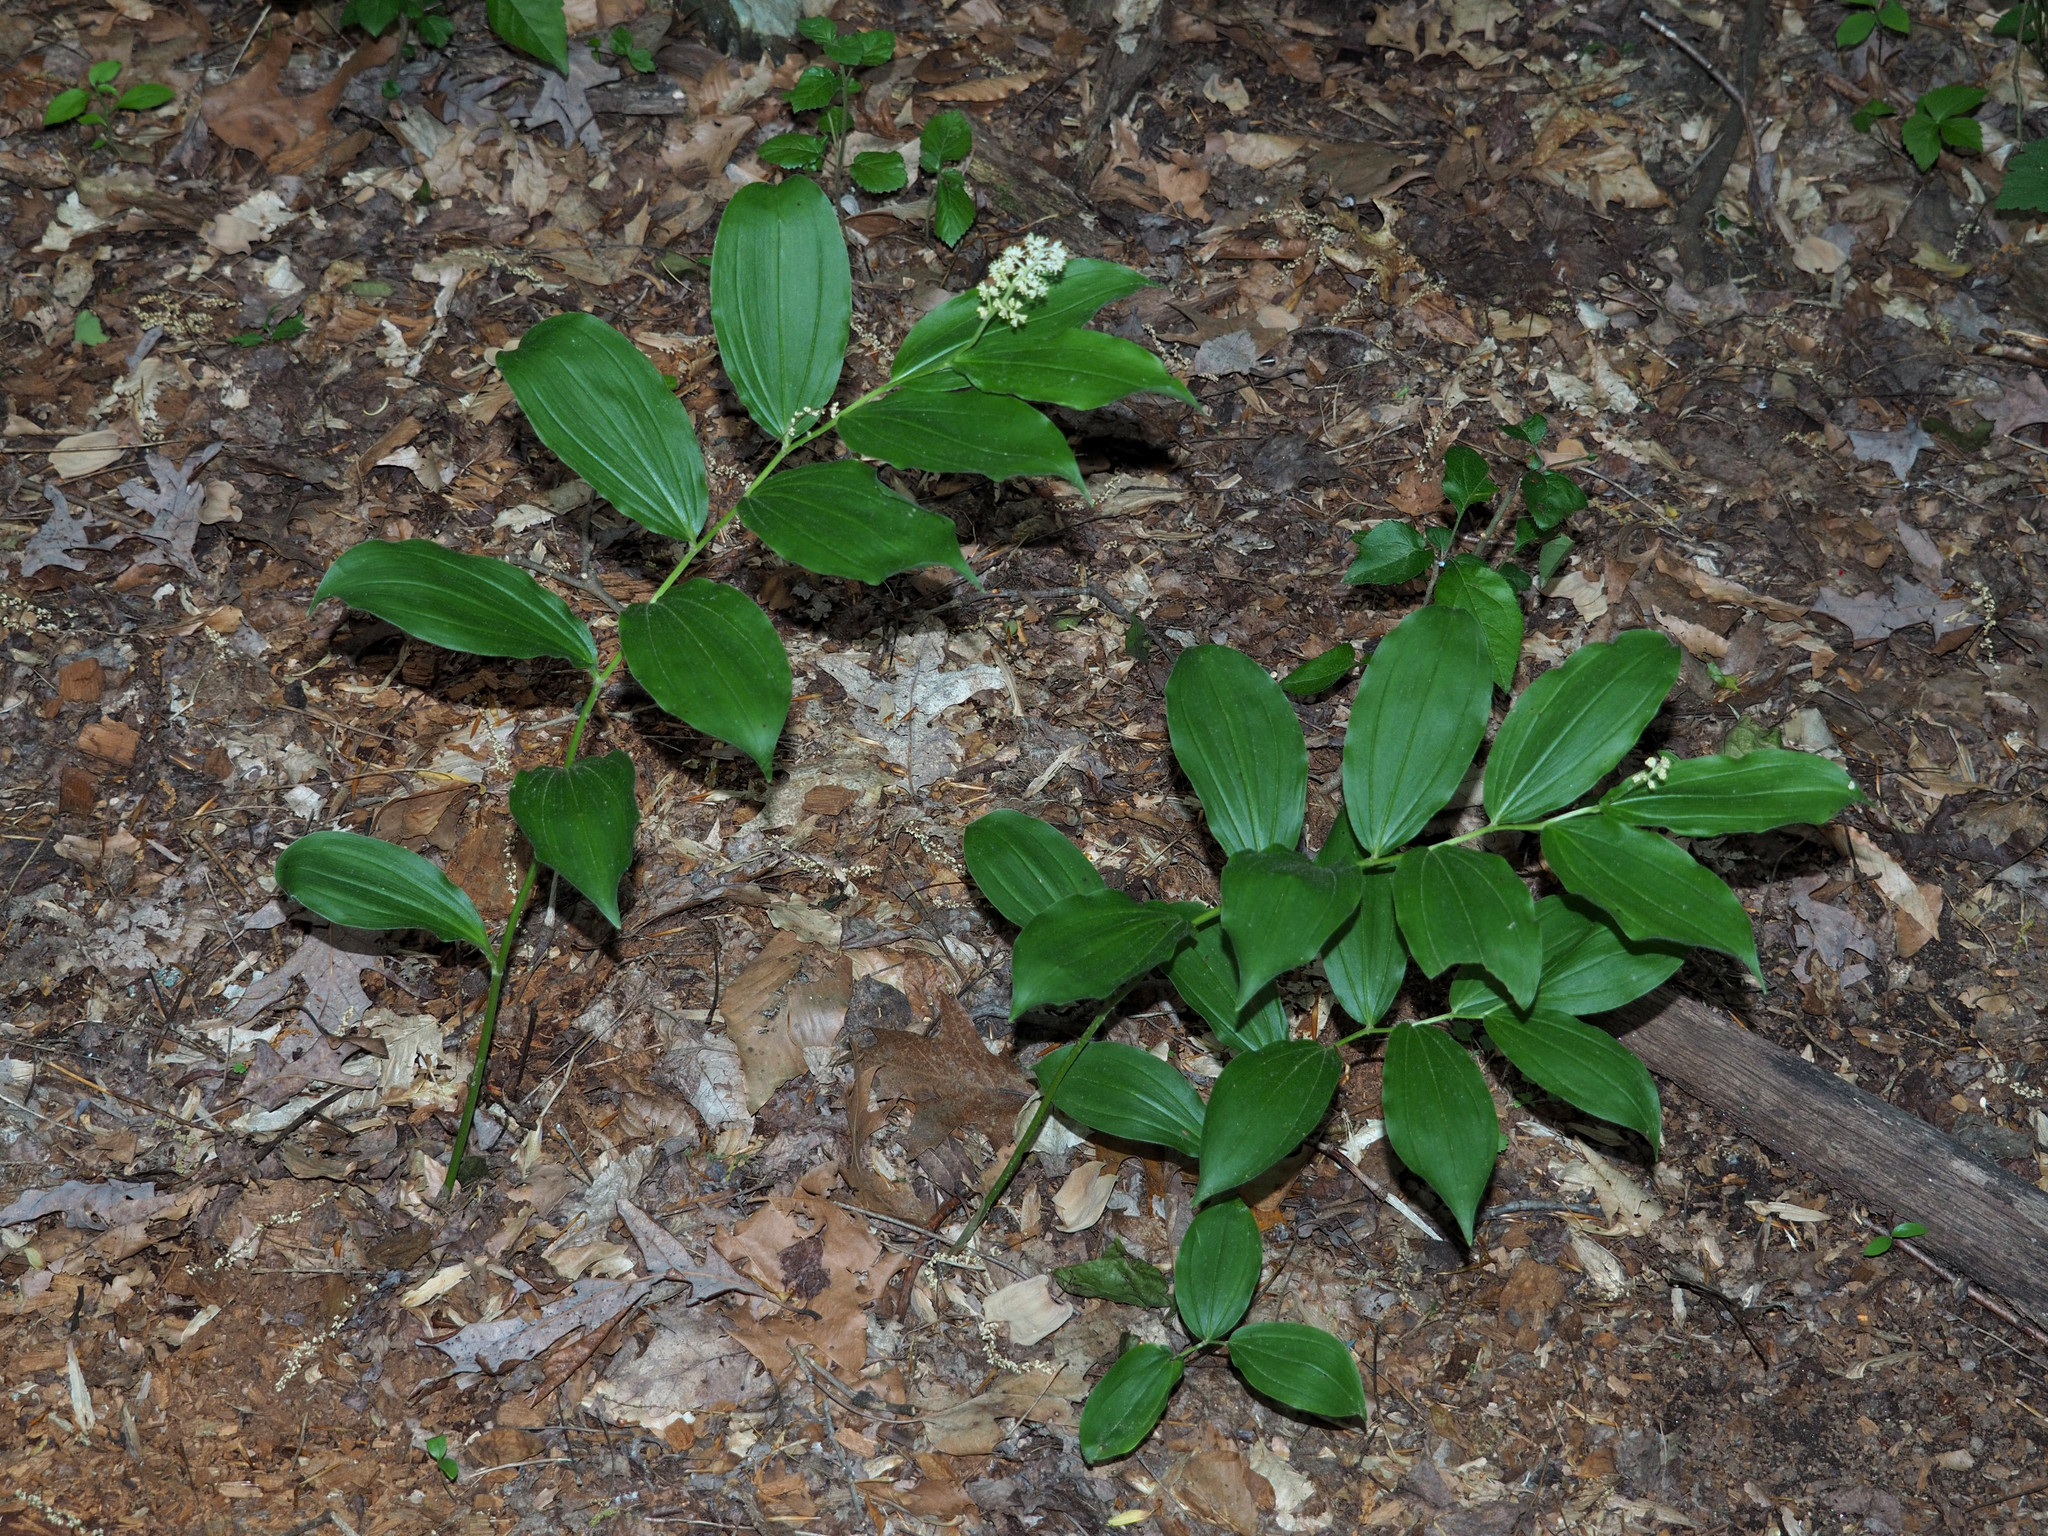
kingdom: Plantae
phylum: Tracheophyta
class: Liliopsida
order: Asparagales
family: Asparagaceae
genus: Maianthemum
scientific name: Maianthemum racemosum
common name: False spikenard
